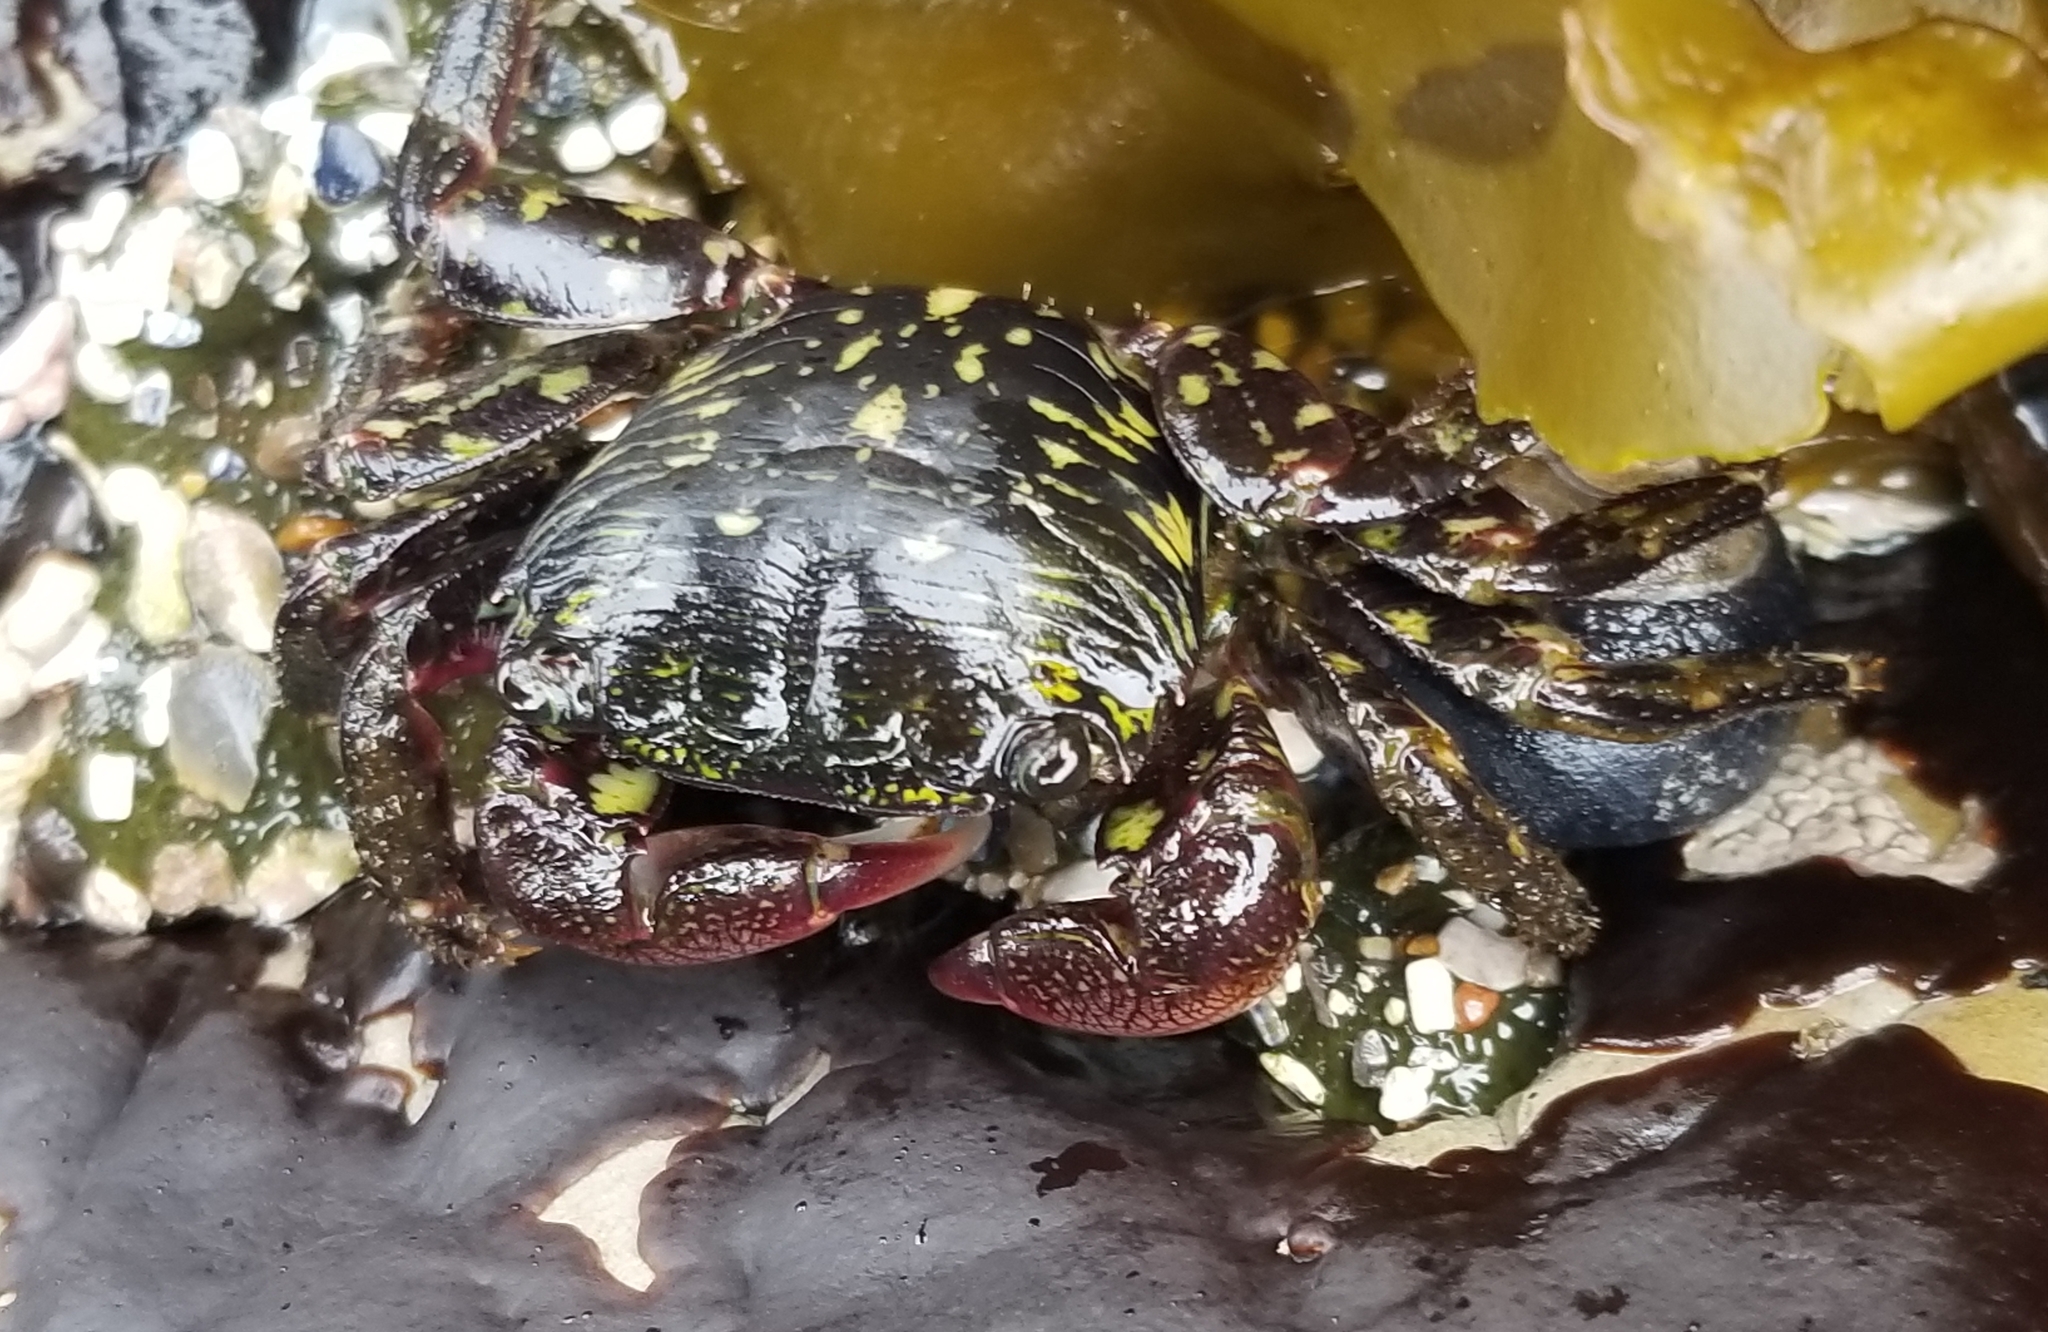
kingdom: Animalia
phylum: Arthropoda
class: Malacostraca
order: Decapoda
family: Grapsidae
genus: Pachygrapsus
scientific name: Pachygrapsus crassipes
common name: Striped shore crab
